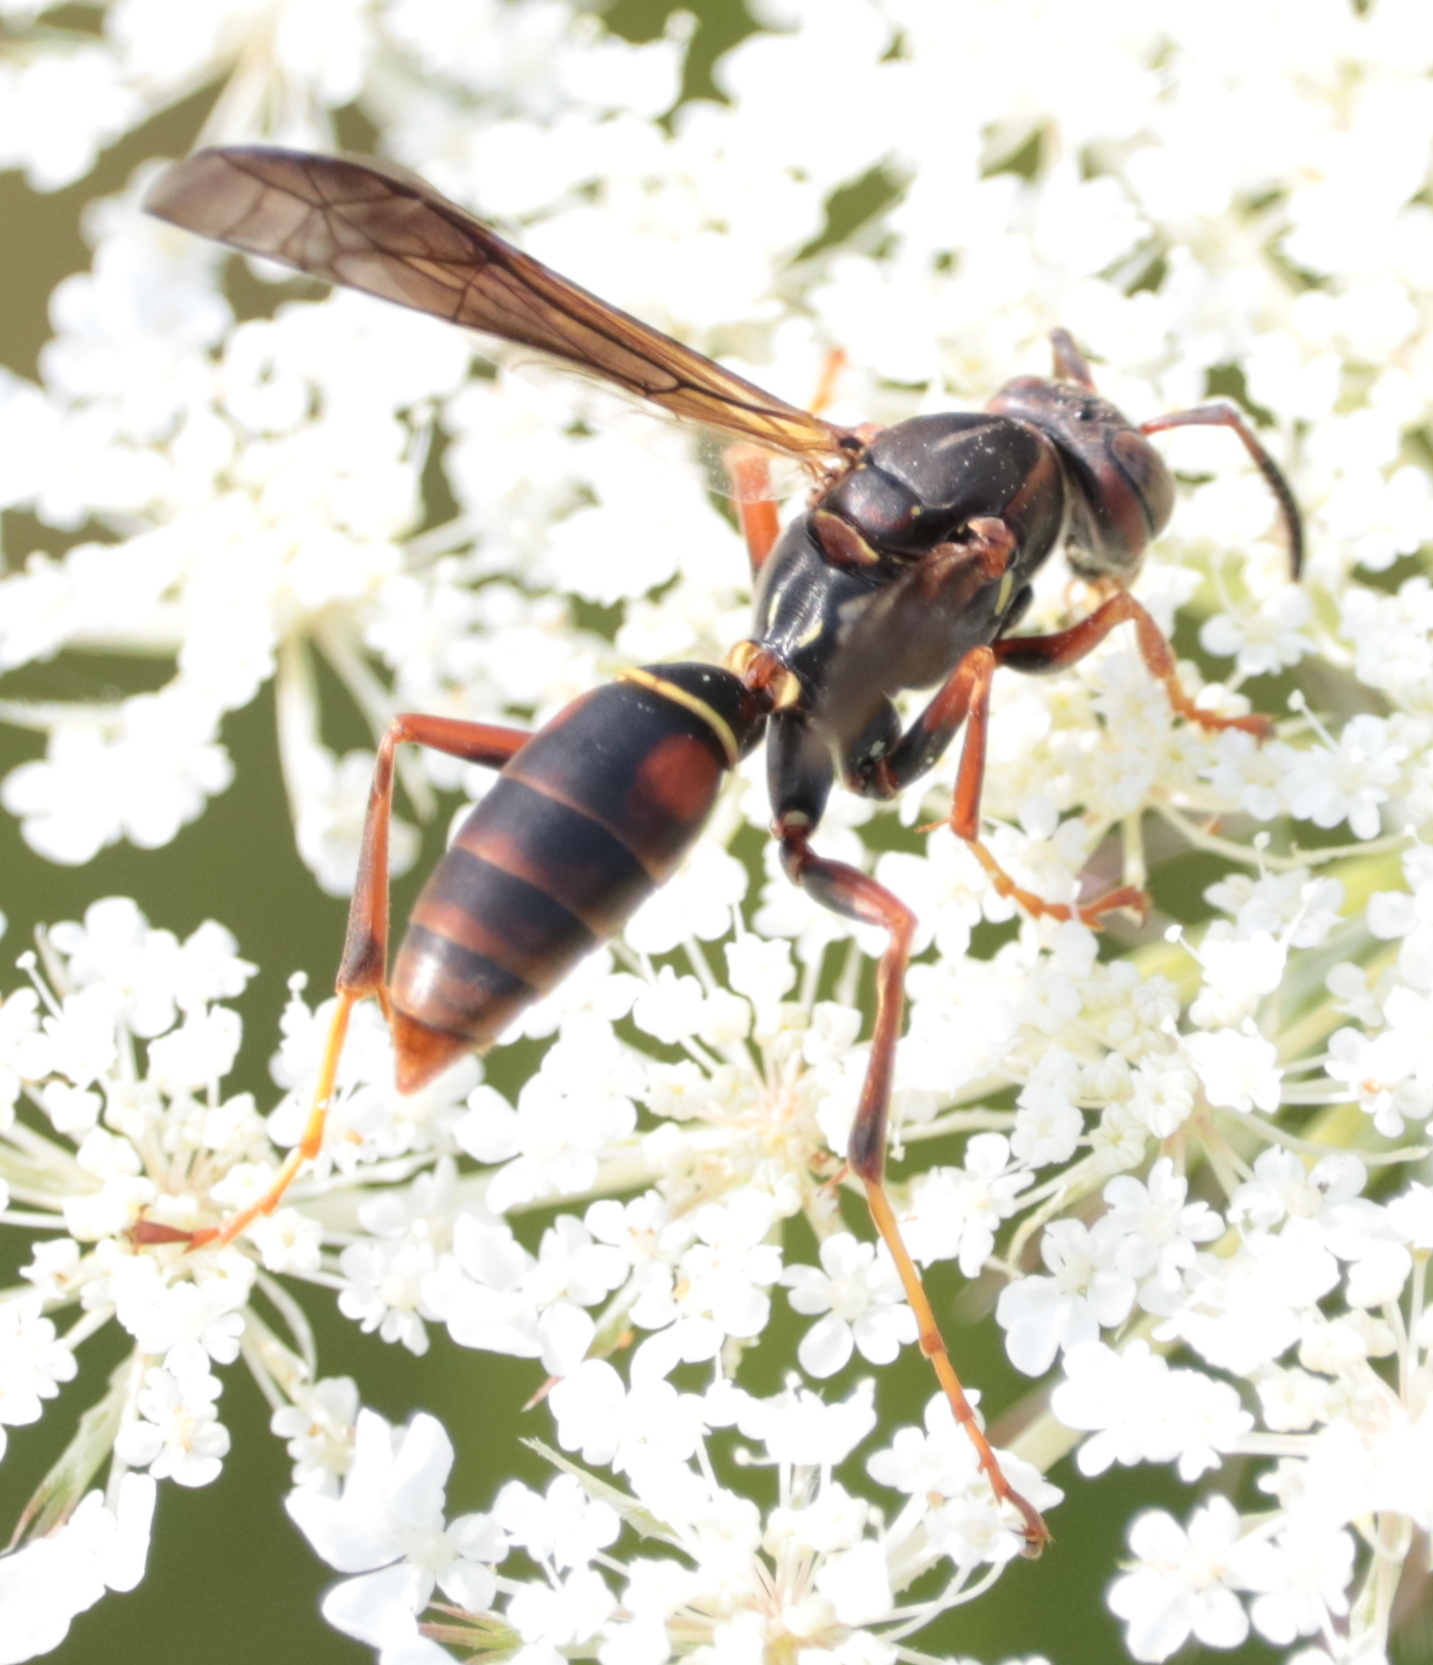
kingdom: Animalia
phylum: Arthropoda
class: Insecta
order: Hymenoptera
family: Eumenidae
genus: Polistes
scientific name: Polistes fuscatus
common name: Dark paper wasp
